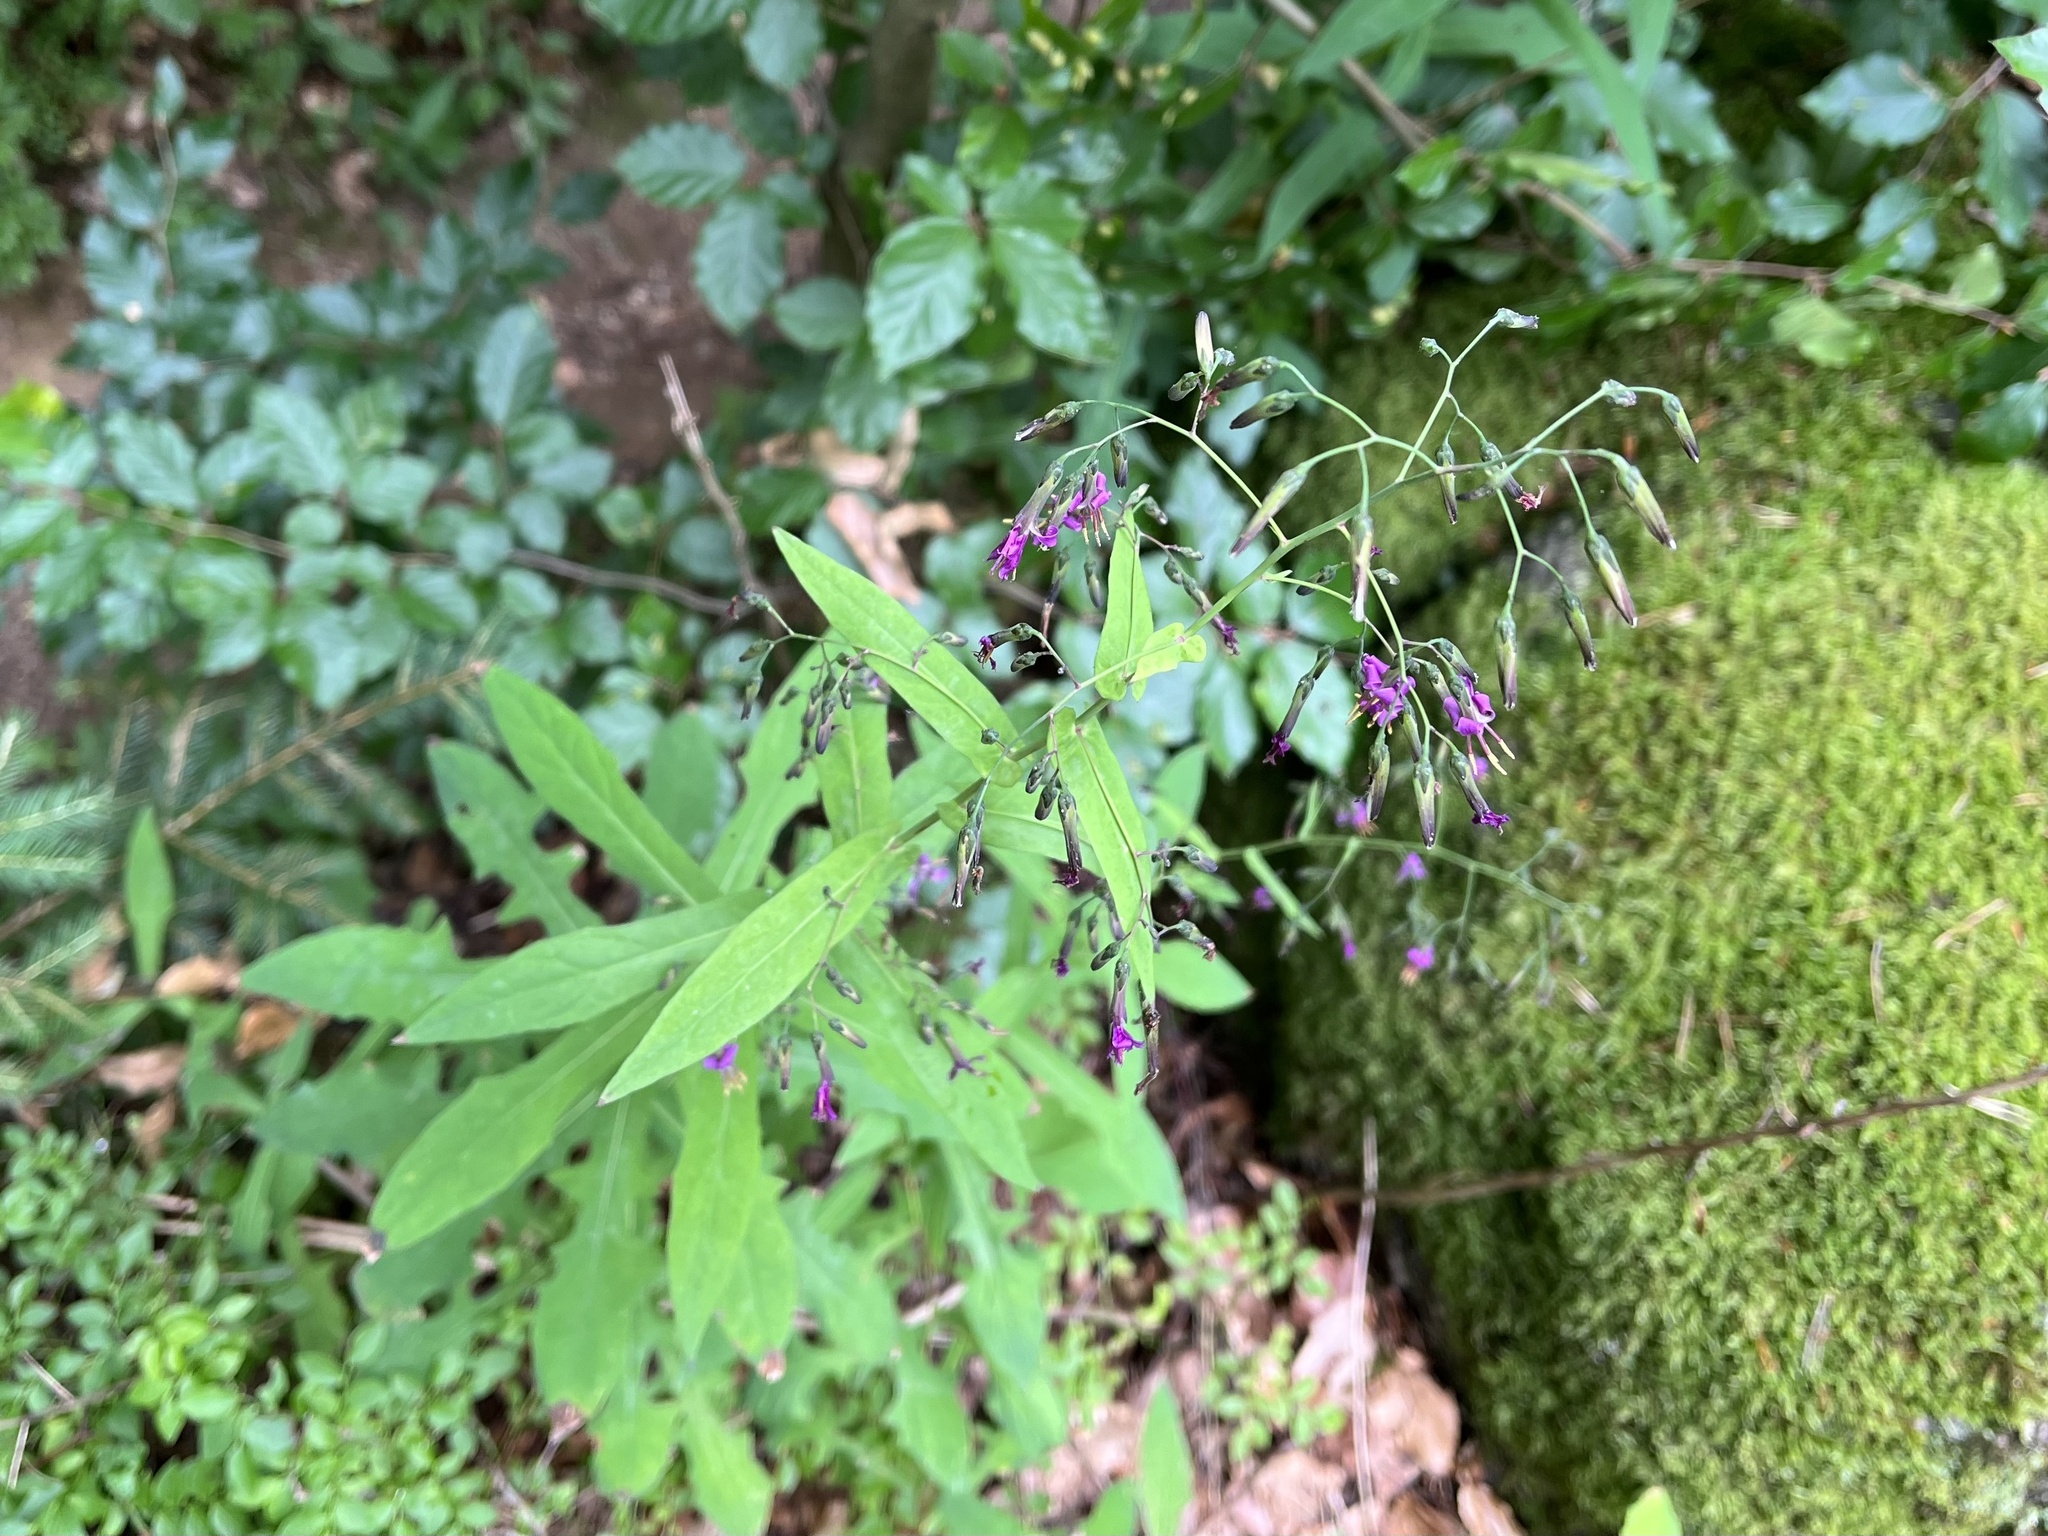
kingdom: Plantae
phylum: Tracheophyta
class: Magnoliopsida
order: Asterales
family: Asteraceae
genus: Prenanthes
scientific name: Prenanthes purpurea
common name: Purple lettuce
